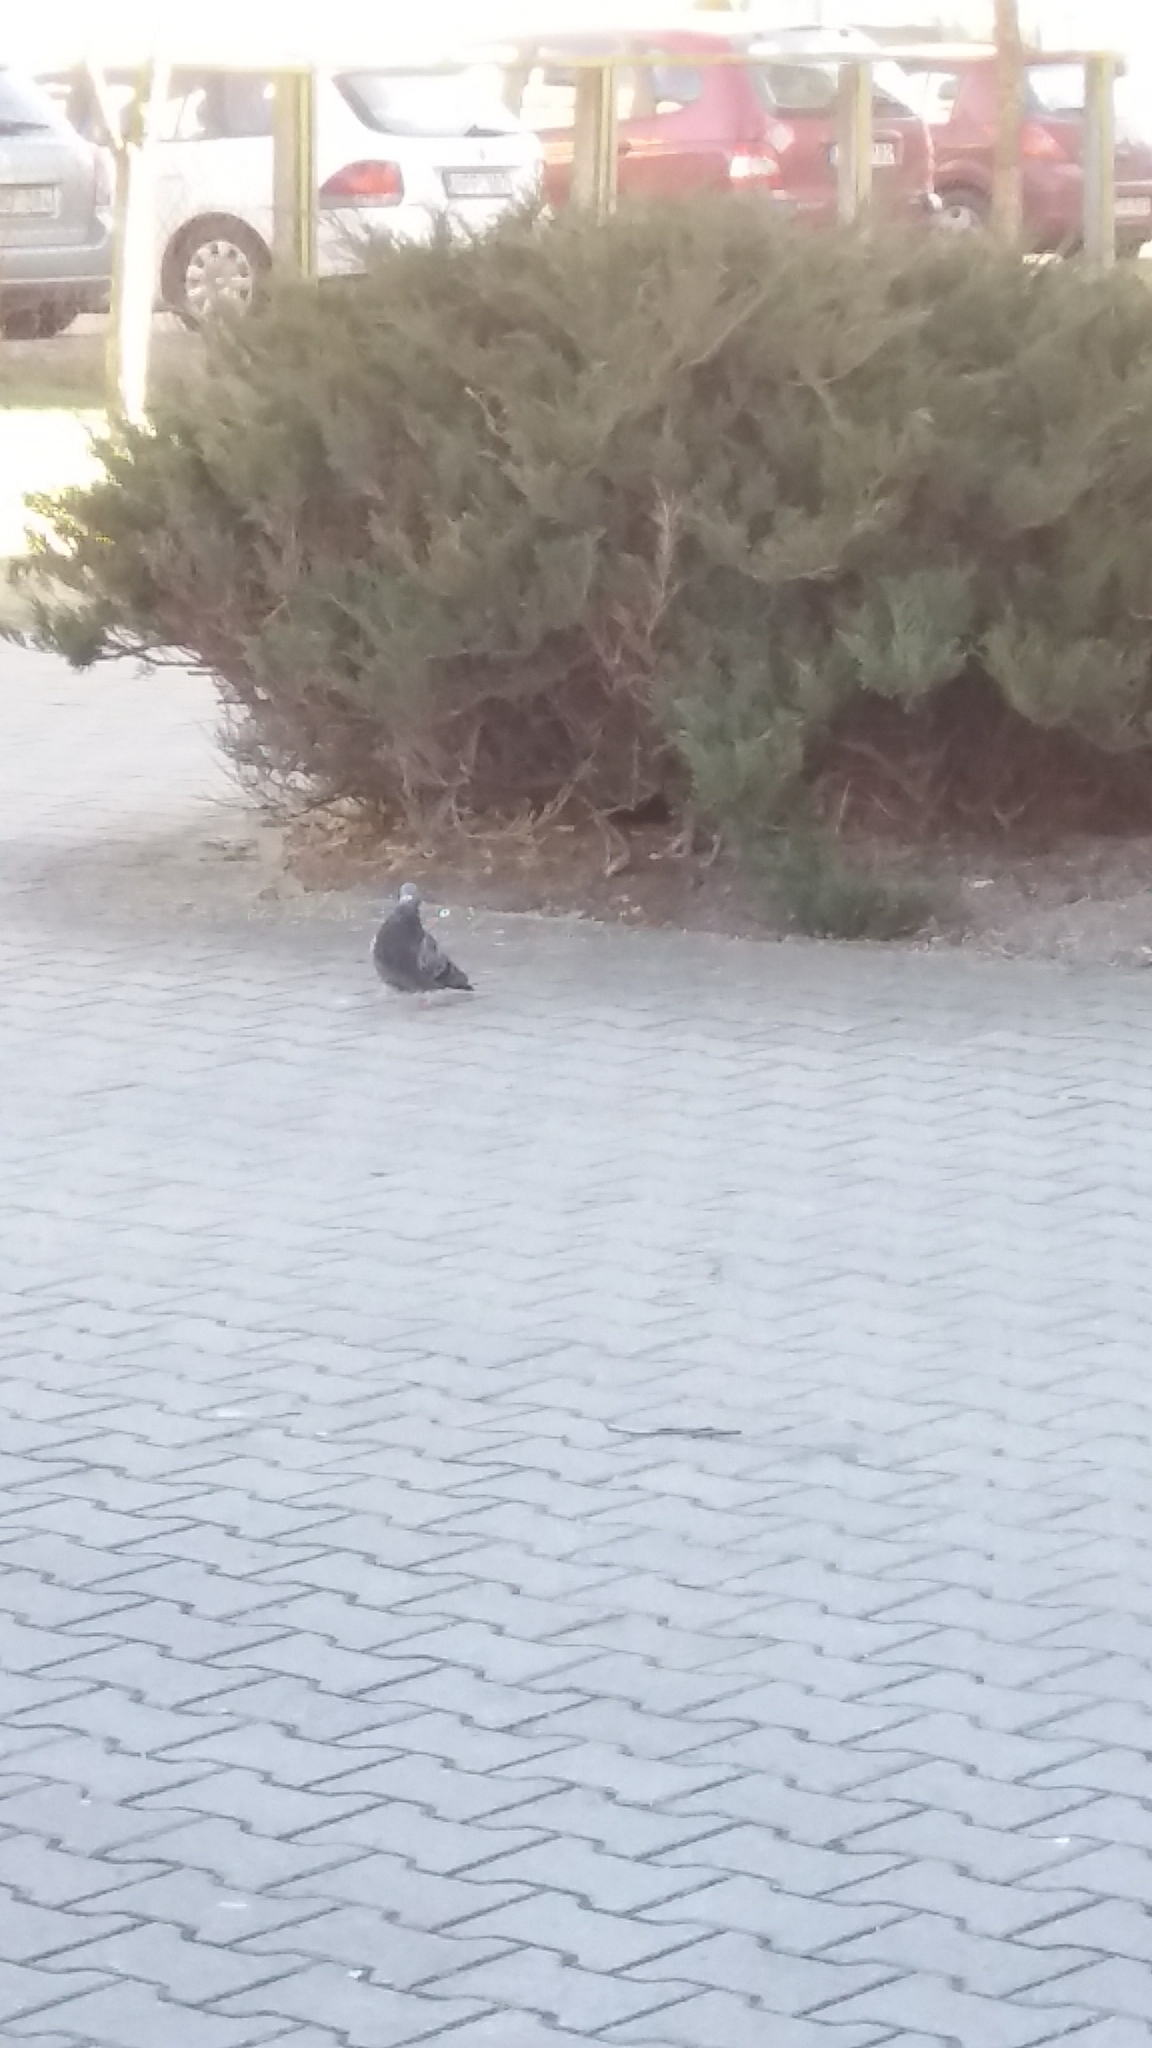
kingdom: Animalia
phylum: Chordata
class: Aves
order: Columbiformes
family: Columbidae
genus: Columba
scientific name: Columba livia
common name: Rock pigeon
